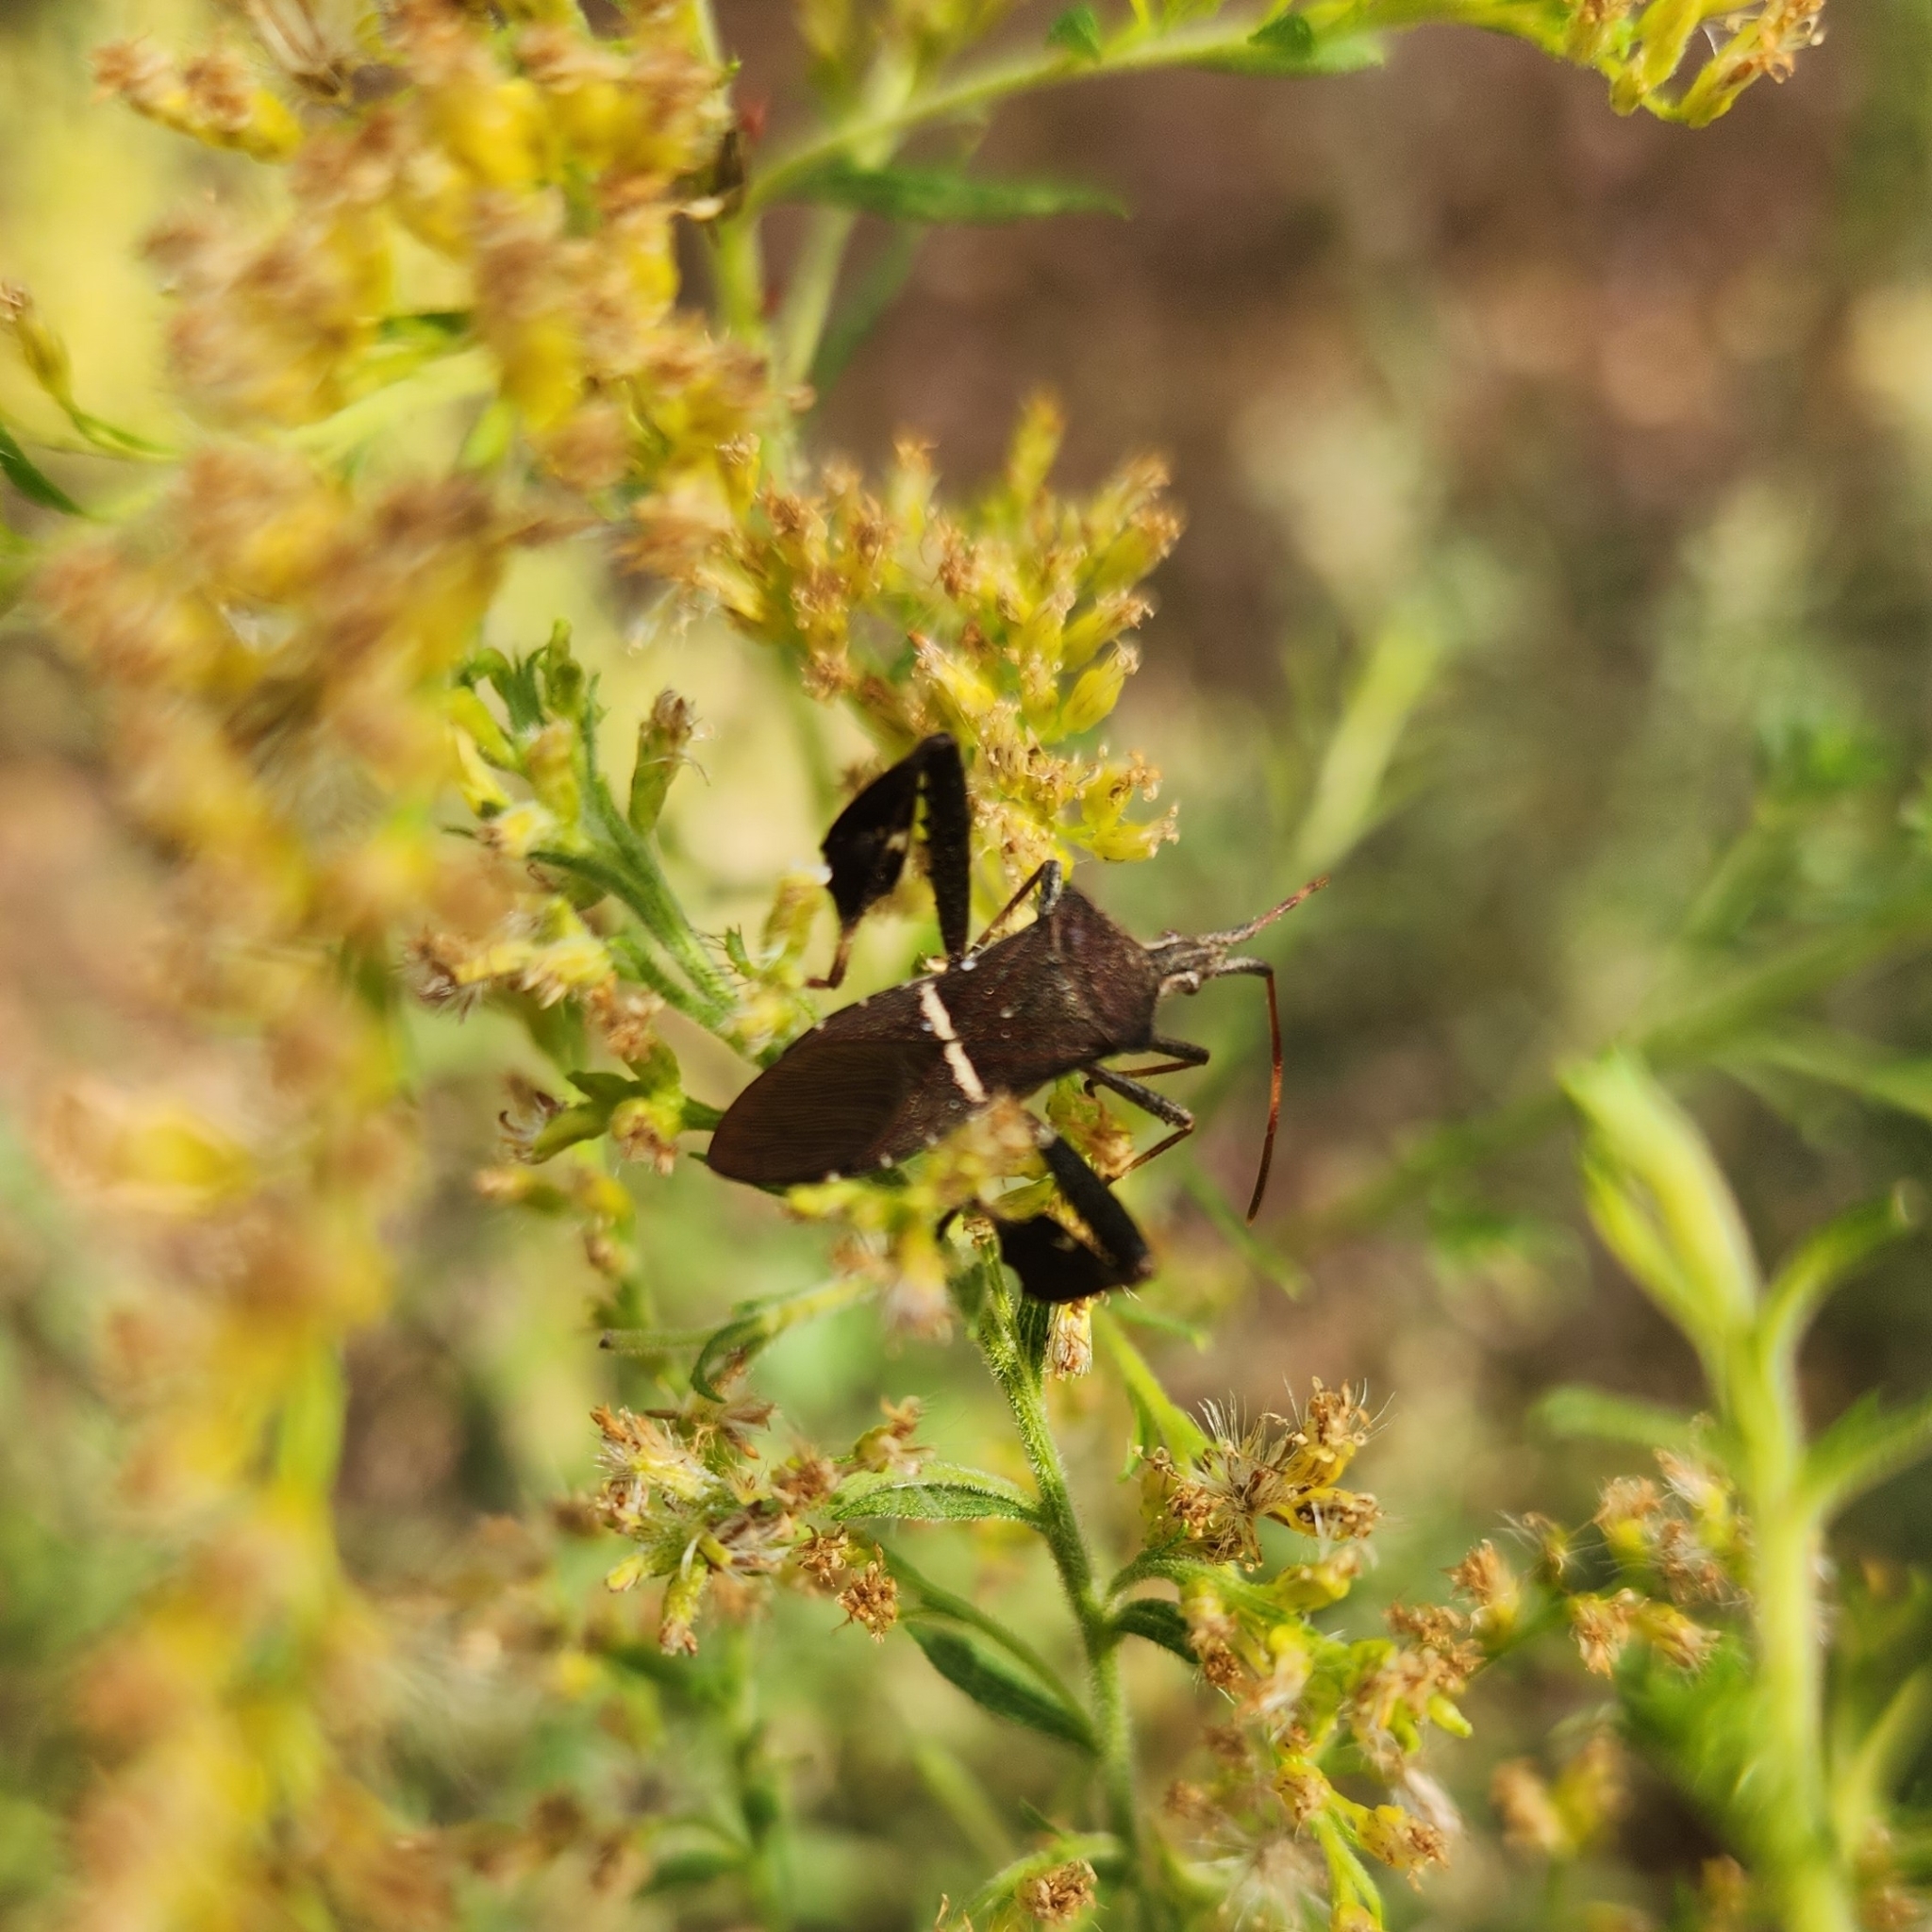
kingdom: Animalia
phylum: Arthropoda
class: Insecta
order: Hemiptera
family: Coreidae
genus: Leptoglossus
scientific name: Leptoglossus phyllopus
